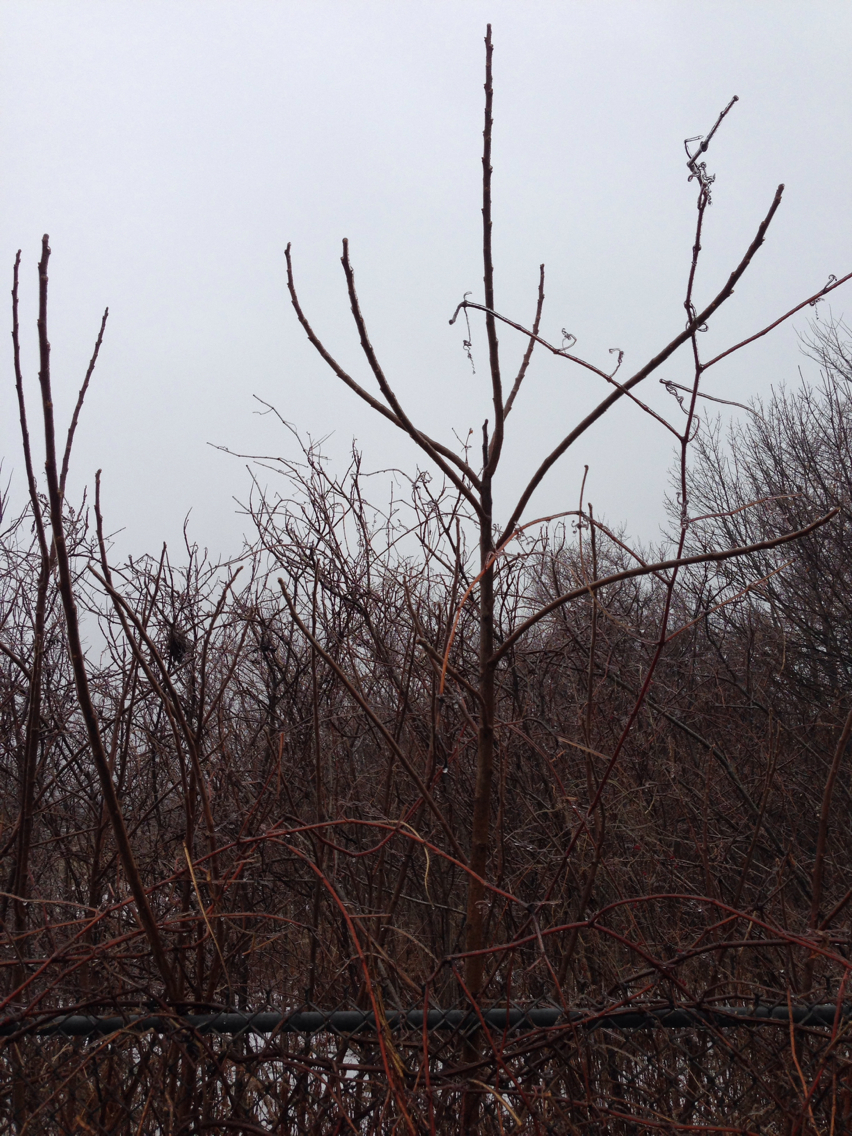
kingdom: Plantae
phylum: Tracheophyta
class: Magnoliopsida
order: Sapindales
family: Anacardiaceae
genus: Rhus
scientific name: Rhus typhina
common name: Staghorn sumac
